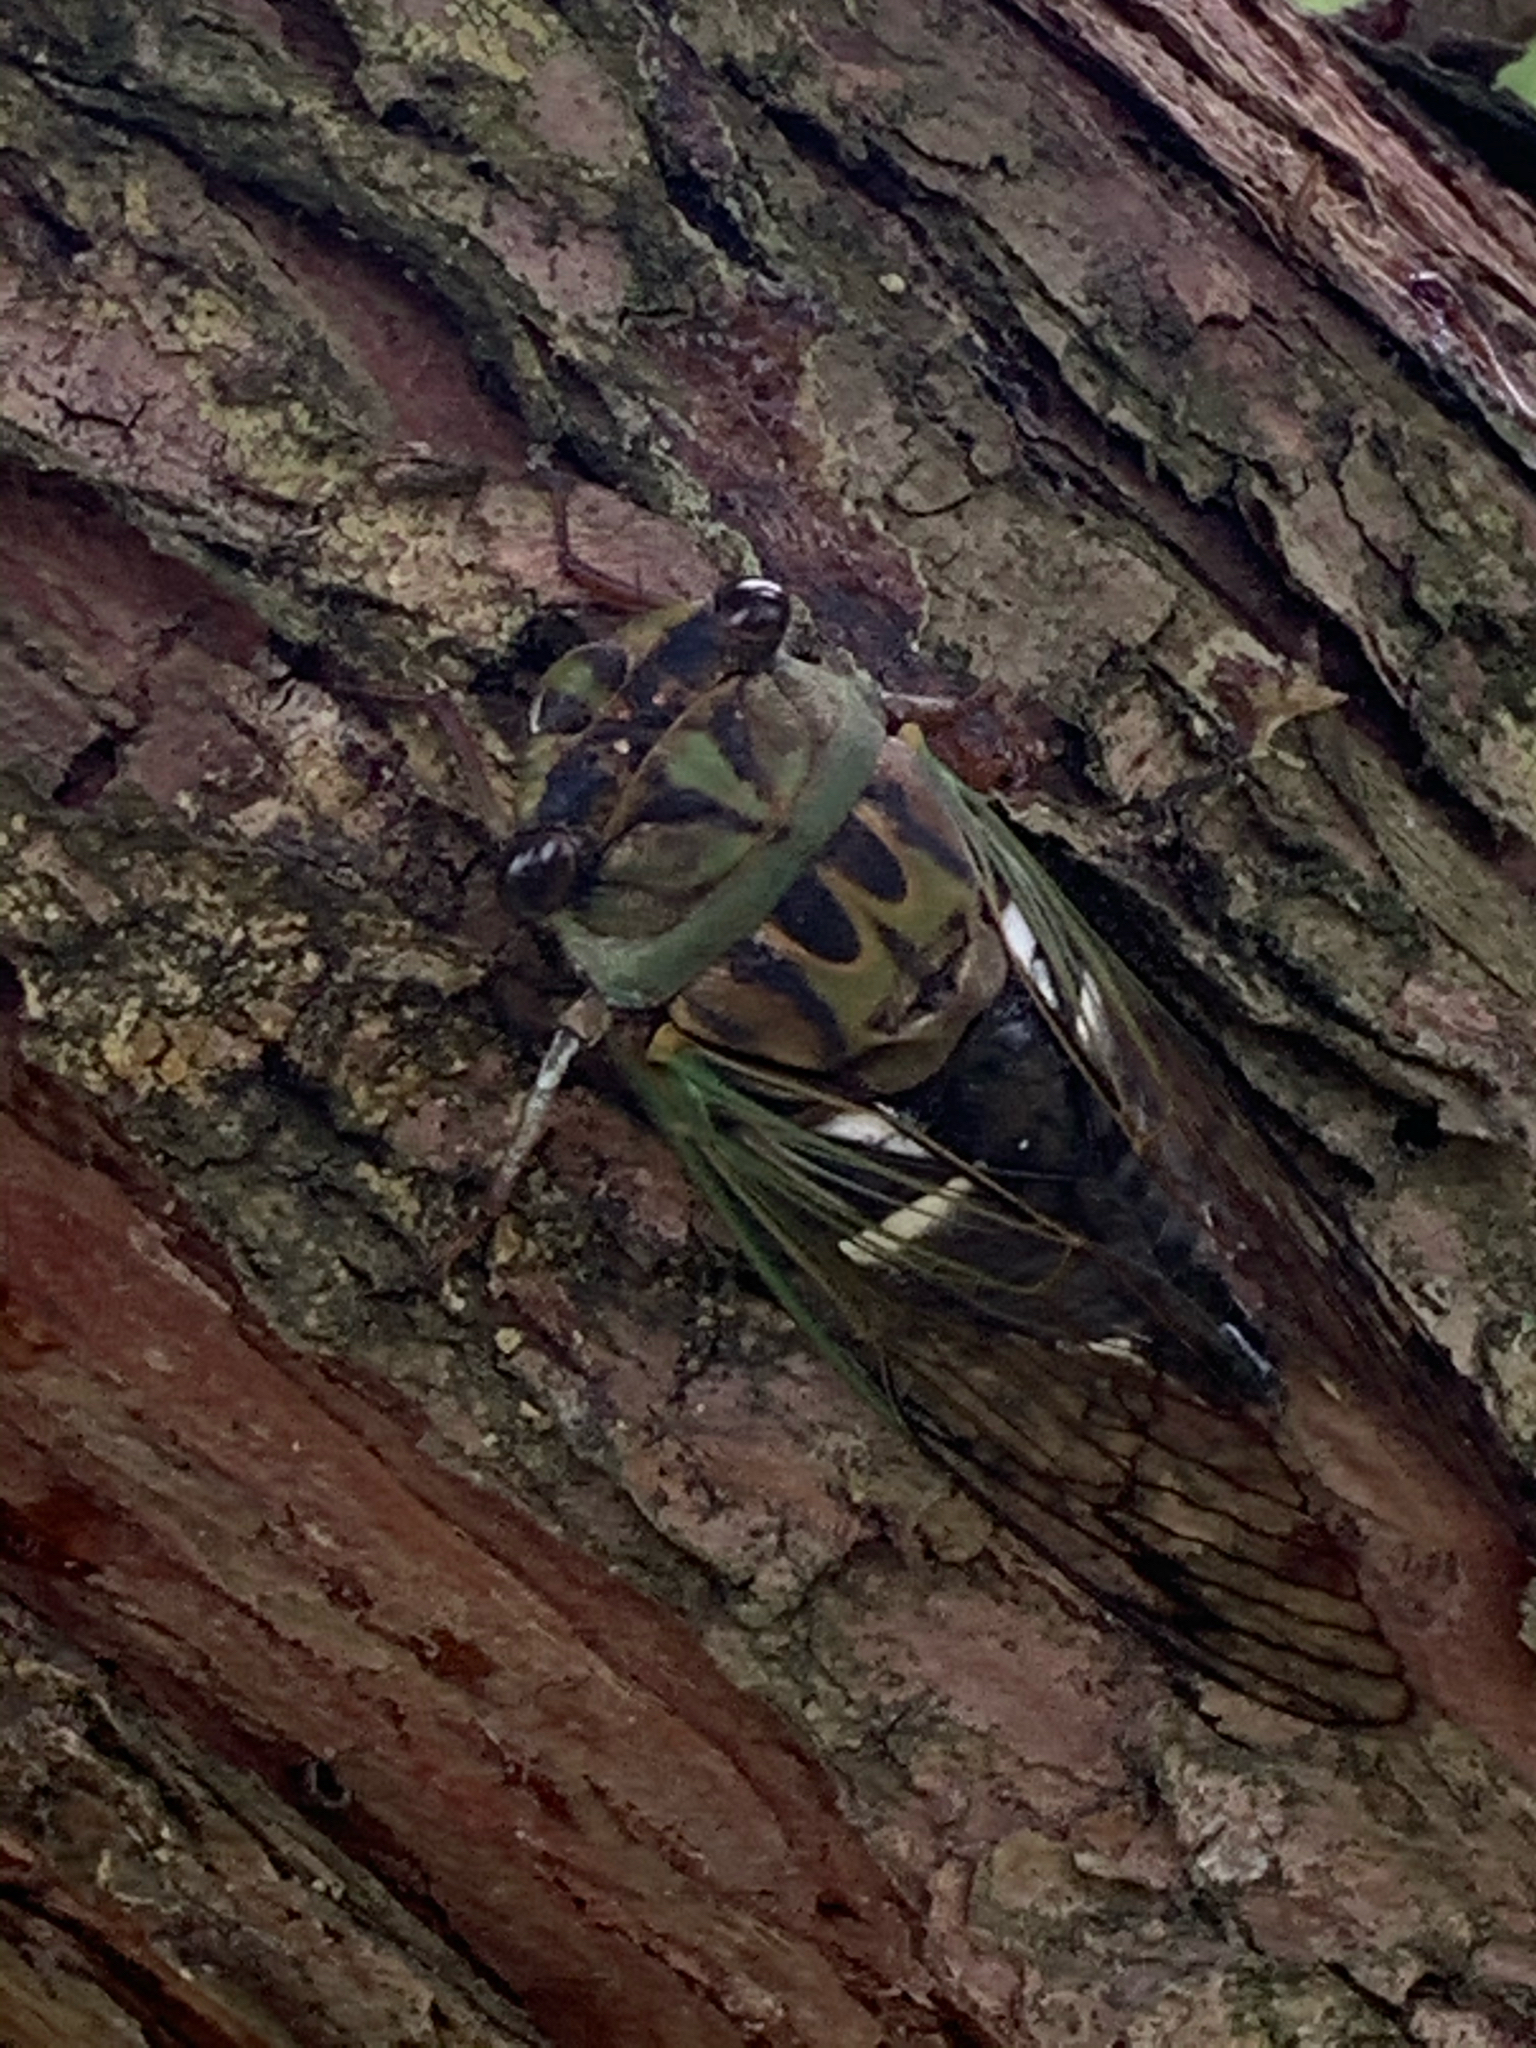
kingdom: Animalia
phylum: Arthropoda
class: Insecta
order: Hemiptera
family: Cicadidae
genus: Neotibicen
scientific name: Neotibicen latifasciatus
